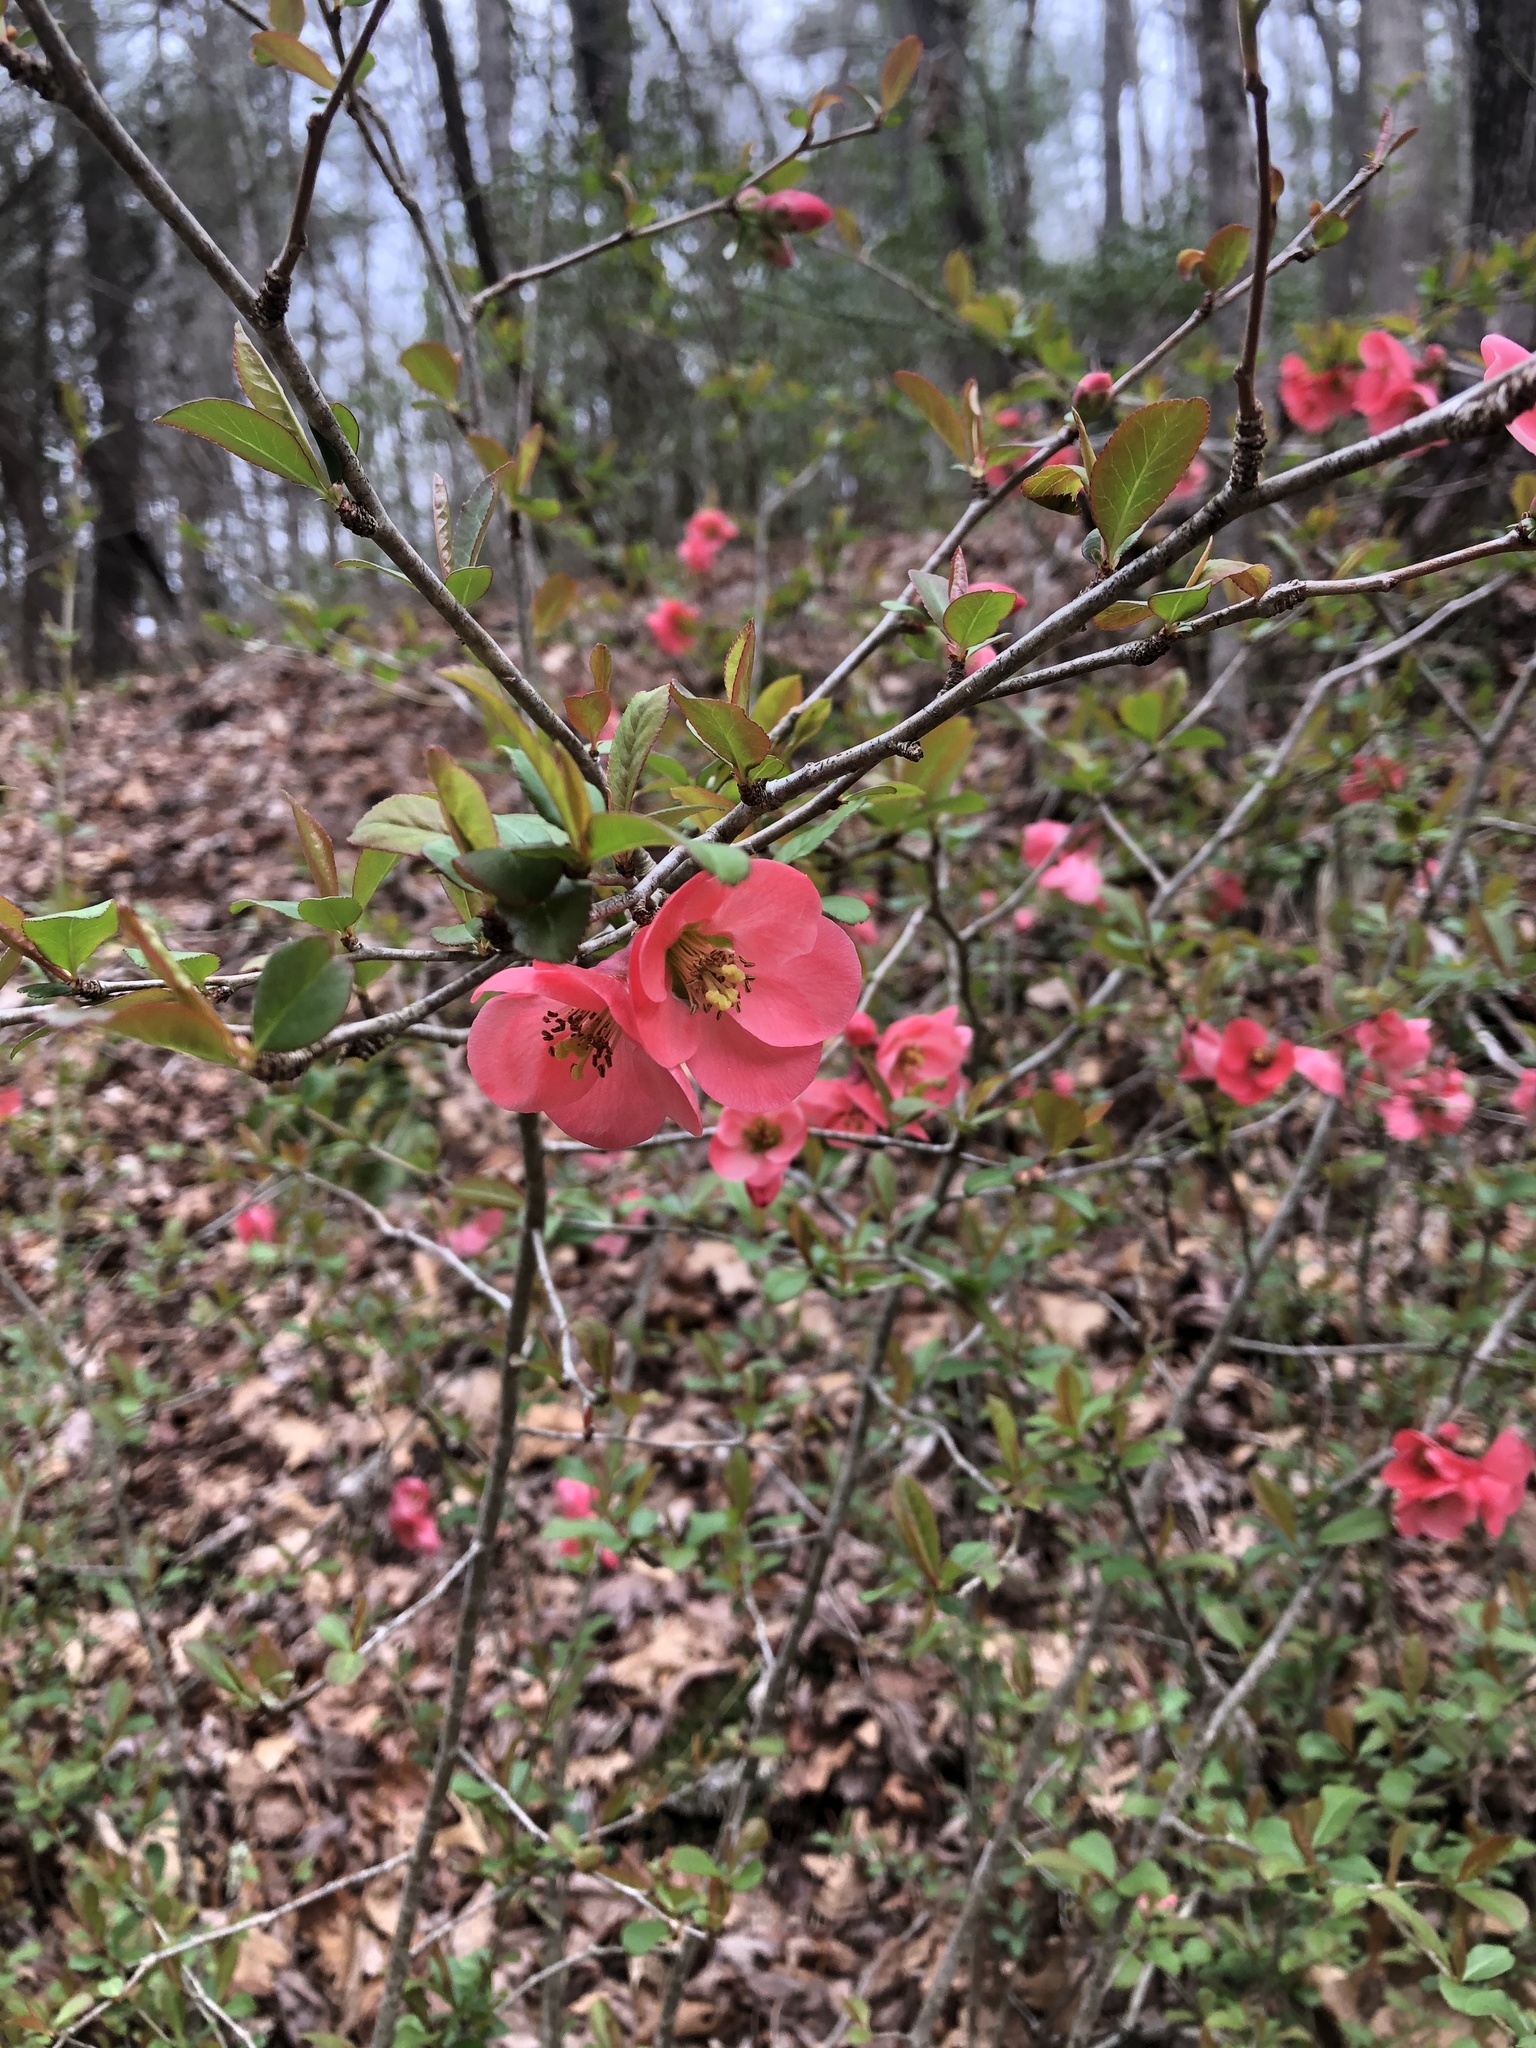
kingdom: Plantae
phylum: Tracheophyta
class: Magnoliopsida
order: Rosales
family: Rosaceae
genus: Chaenomeles
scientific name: Chaenomeles speciosa
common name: Japanese quince
